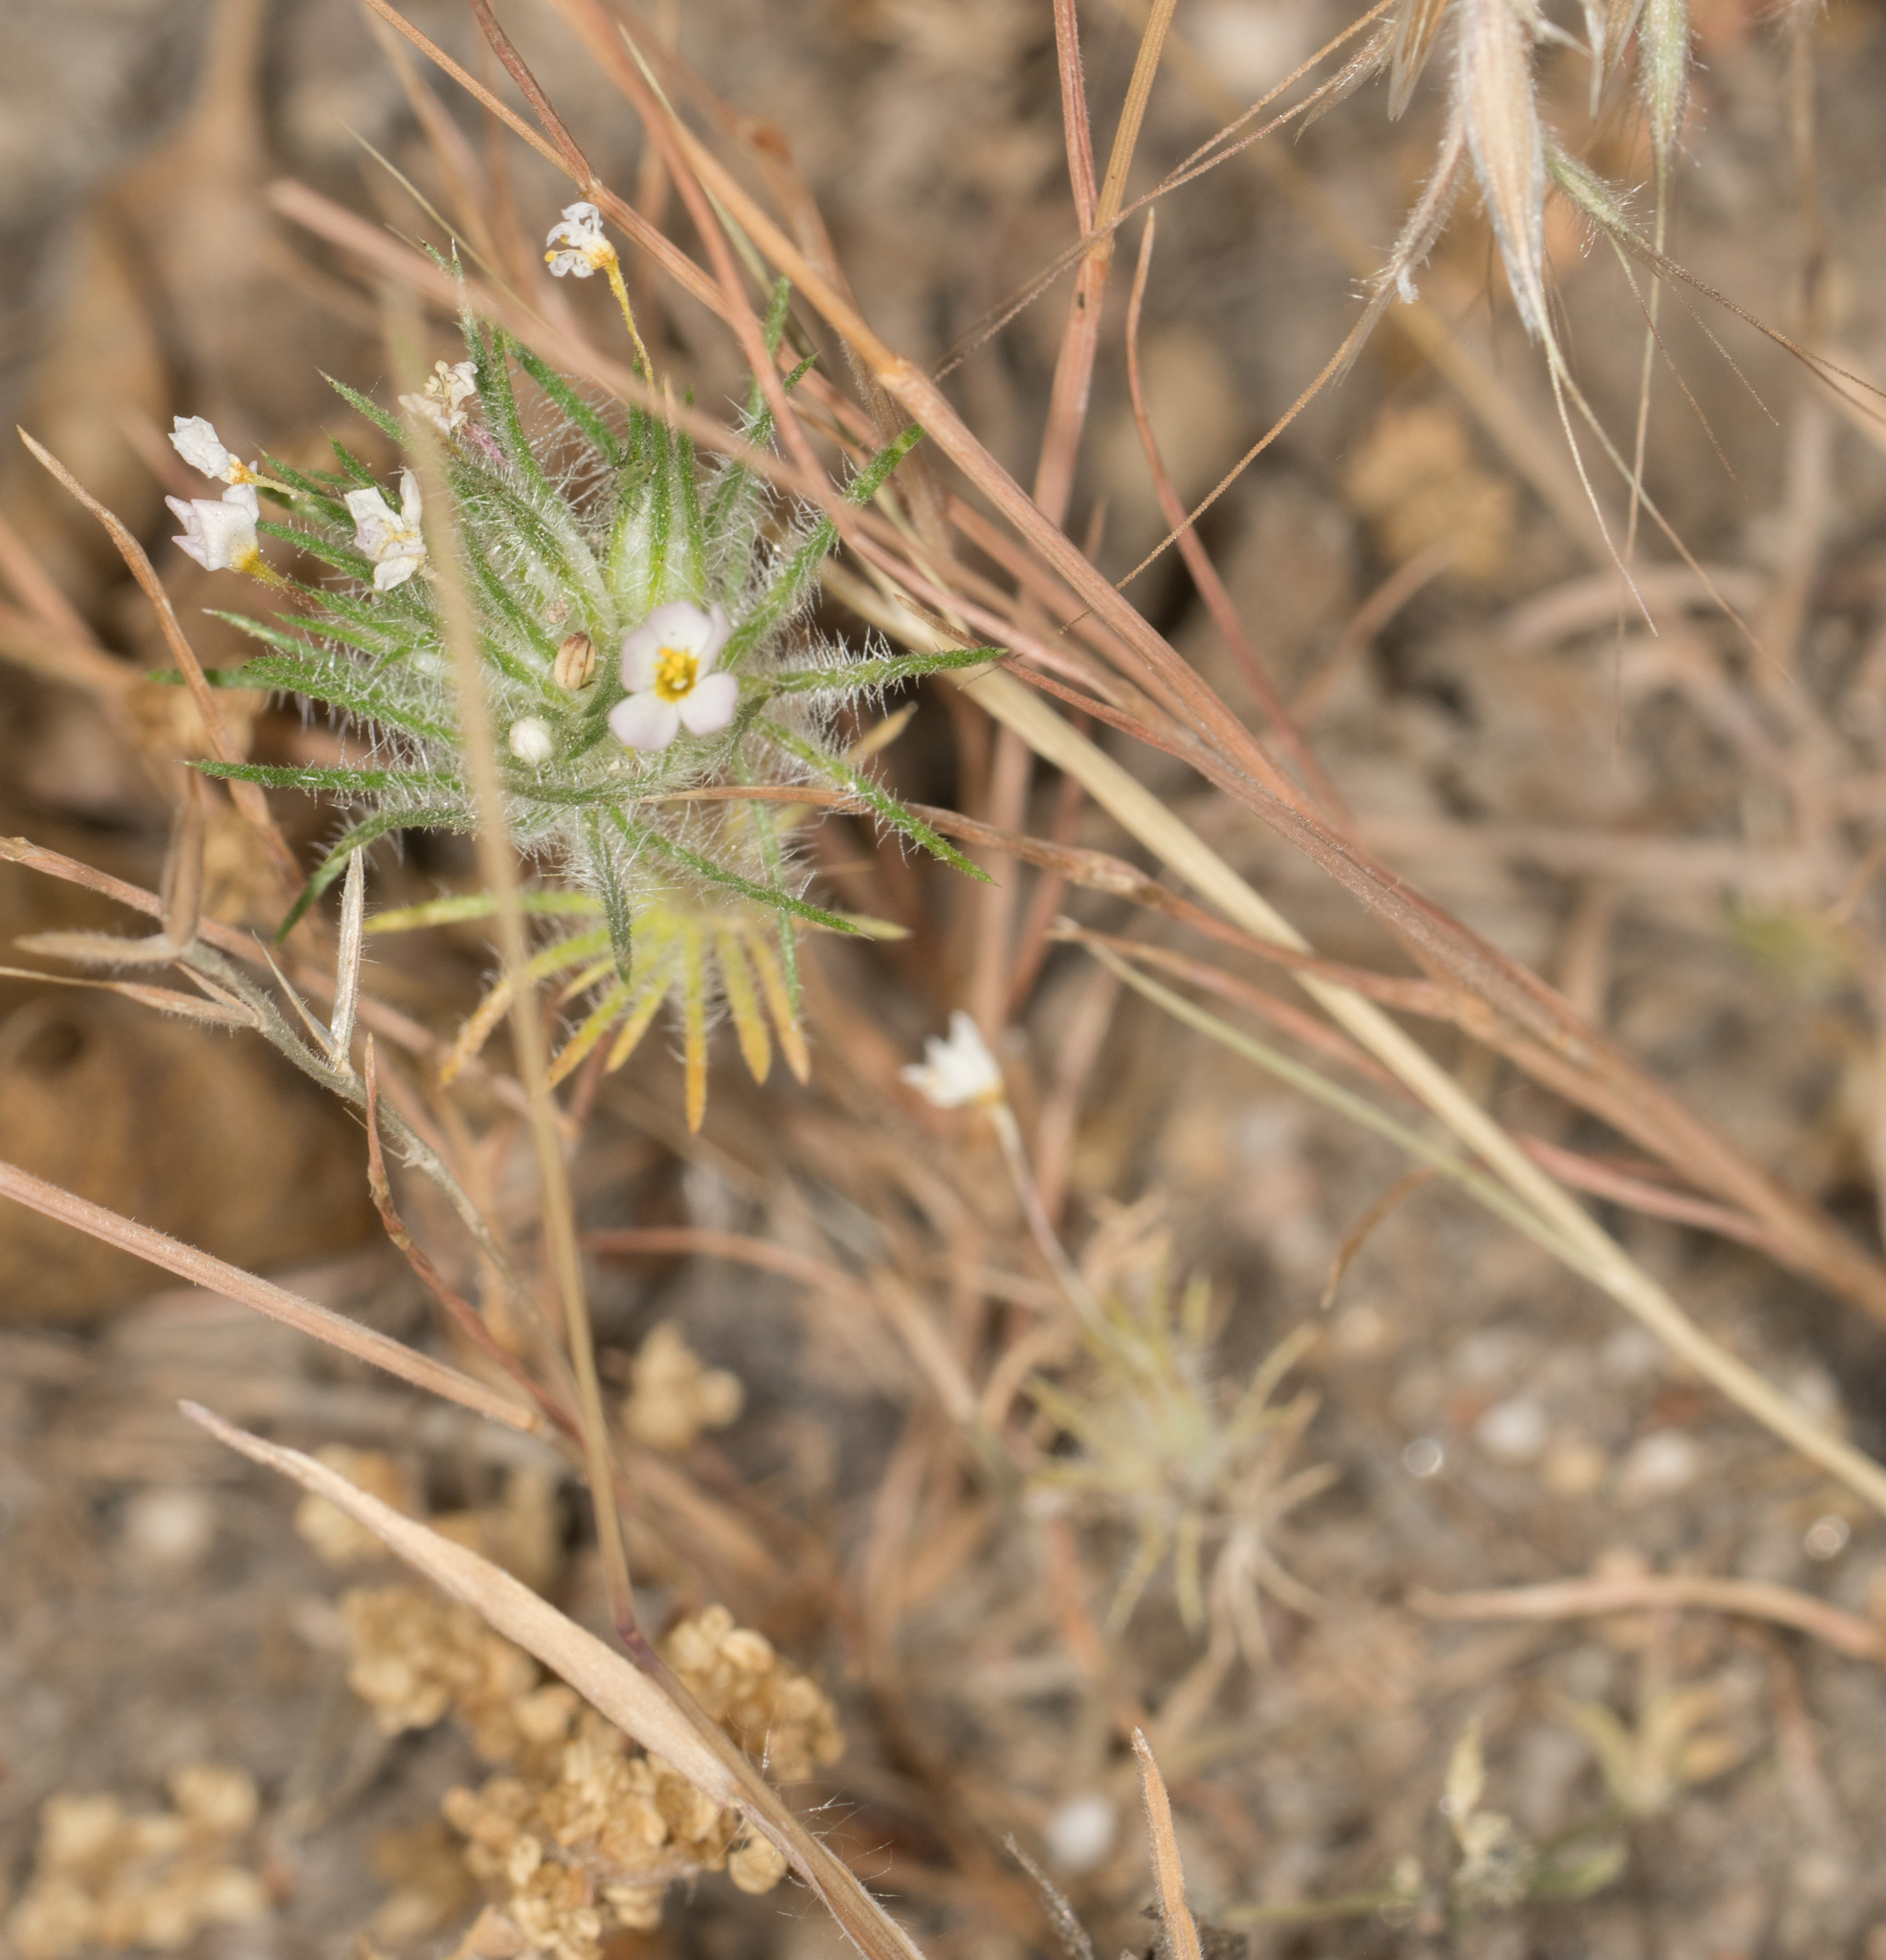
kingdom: Plantae
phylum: Tracheophyta
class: Magnoliopsida
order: Ericales
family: Polemoniaceae
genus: Leptosiphon
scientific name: Leptosiphon ciliatus
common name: Whiskerbrush
